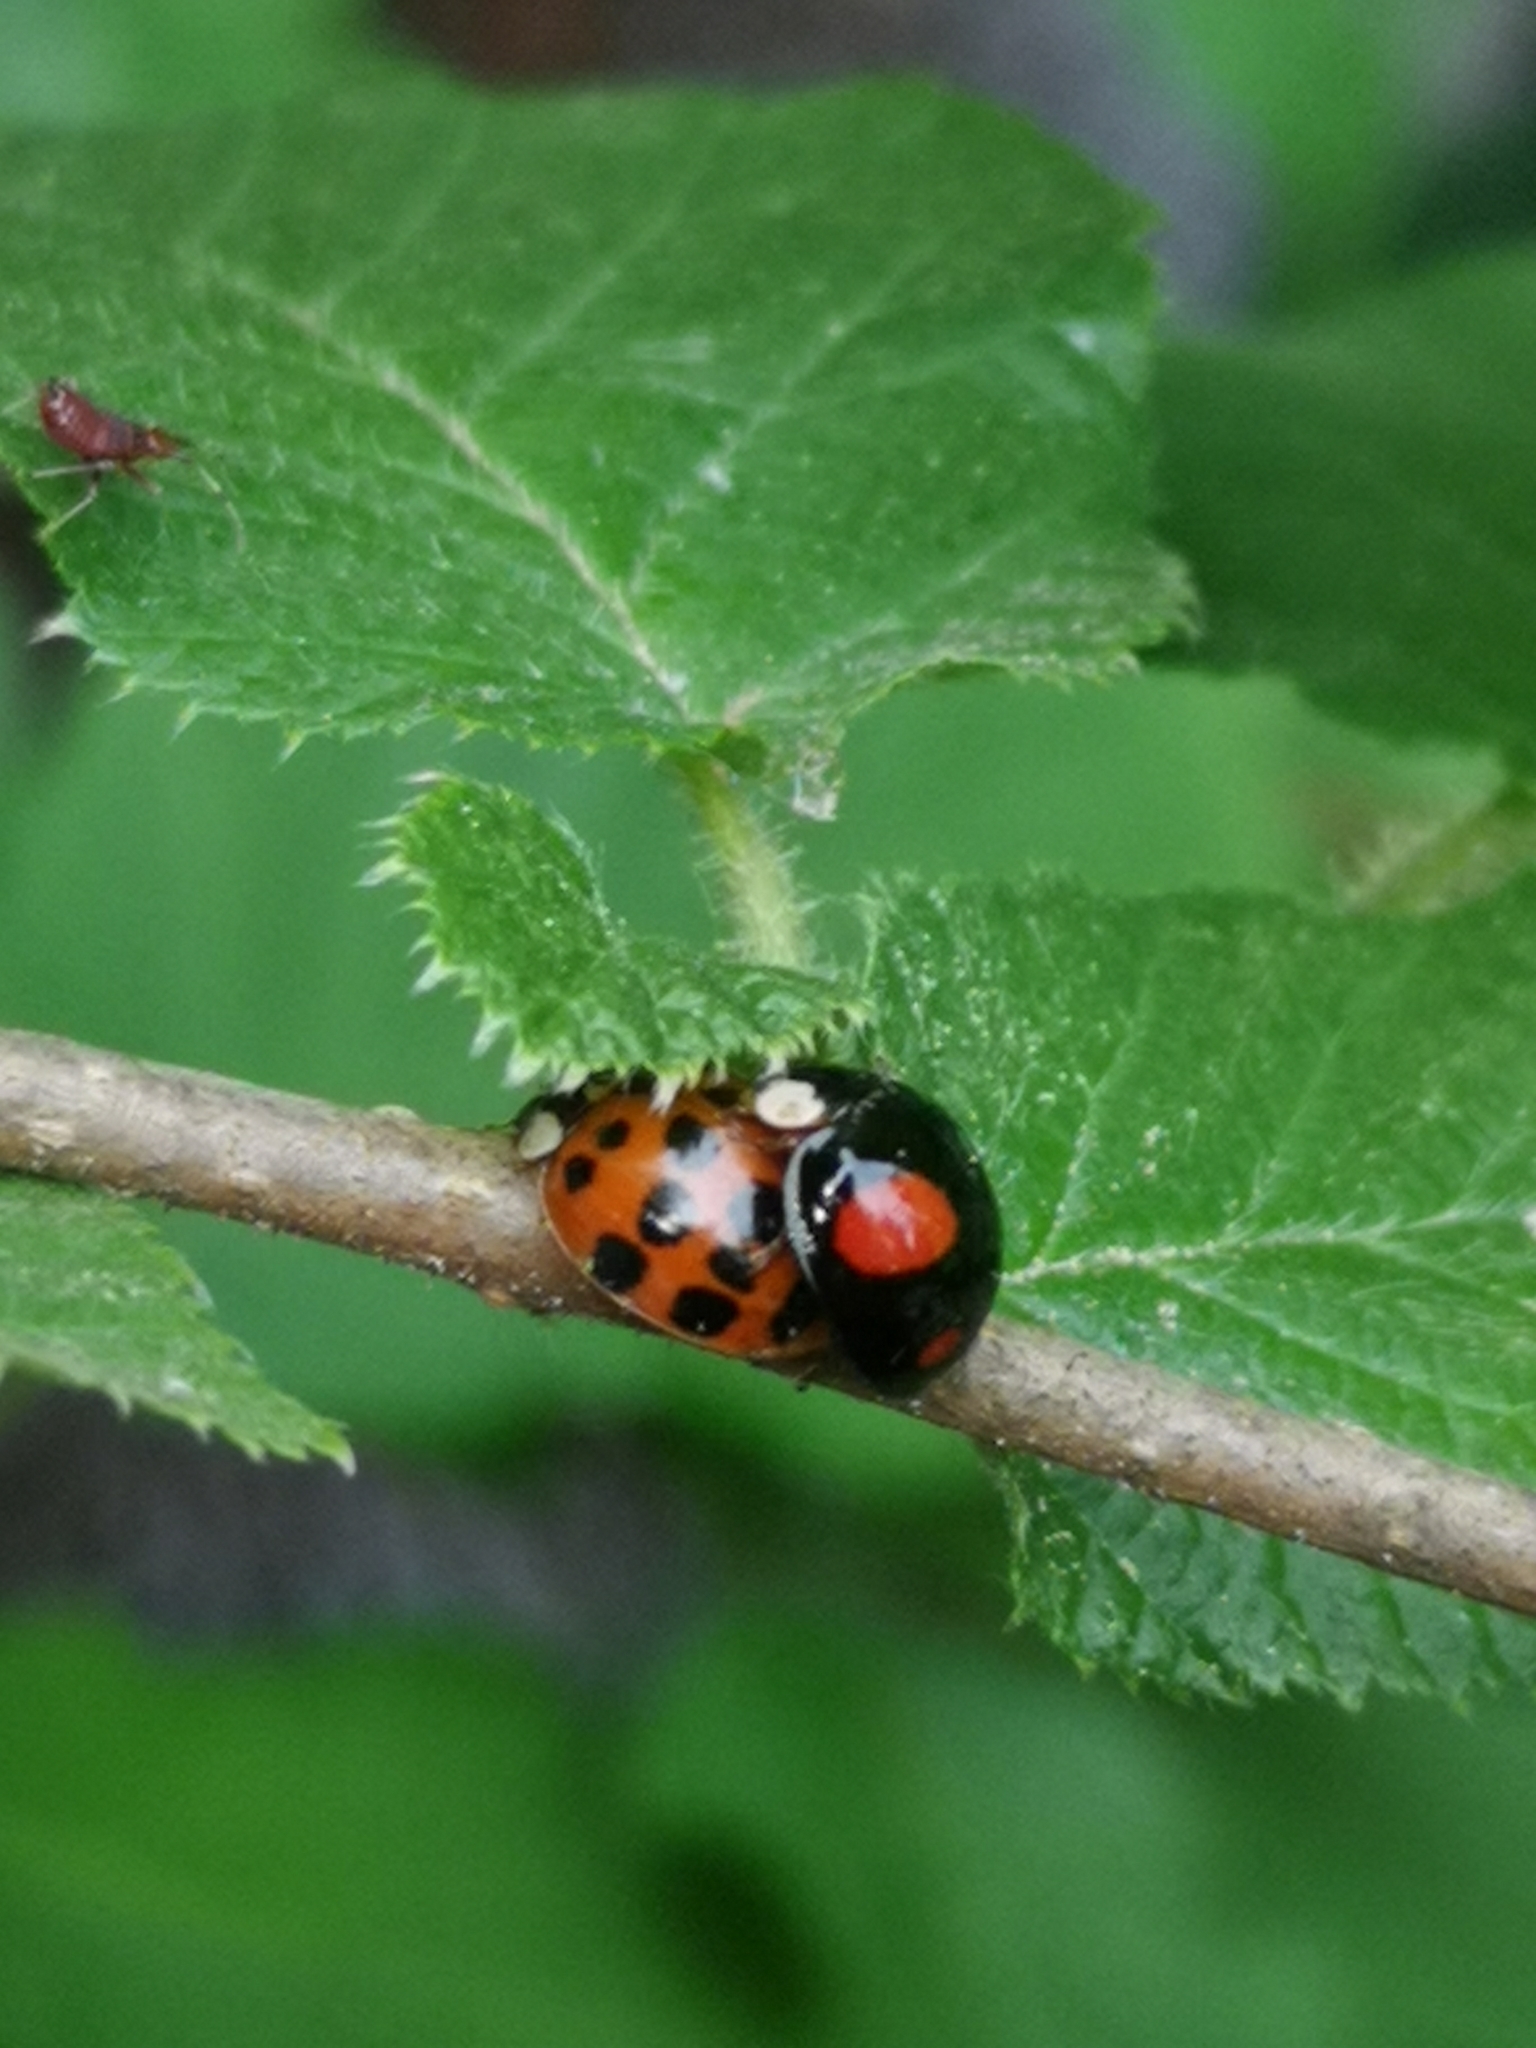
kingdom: Animalia
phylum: Arthropoda
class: Insecta
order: Coleoptera
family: Coccinellidae
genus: Harmonia
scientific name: Harmonia axyridis
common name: Harlequin ladybird
